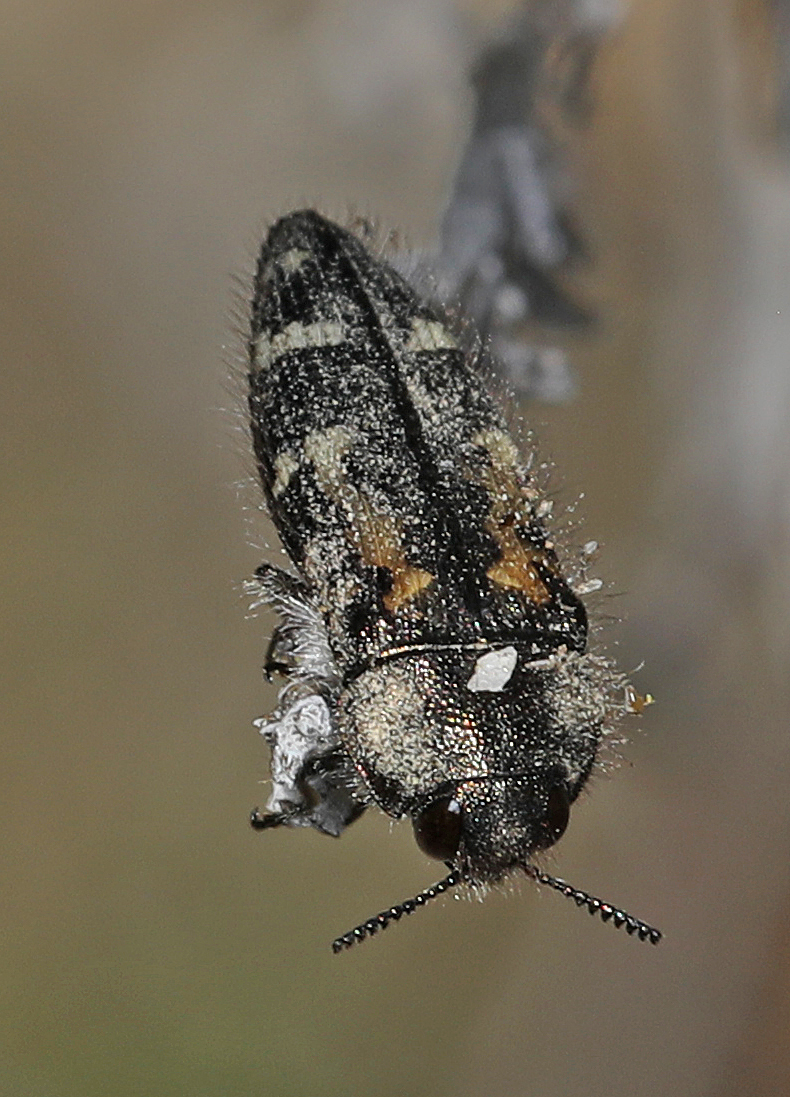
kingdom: Animalia
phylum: Arthropoda
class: Insecta
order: Coleoptera
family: Buprestidae
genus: Acmaeodera
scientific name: Acmaeodera connexa
